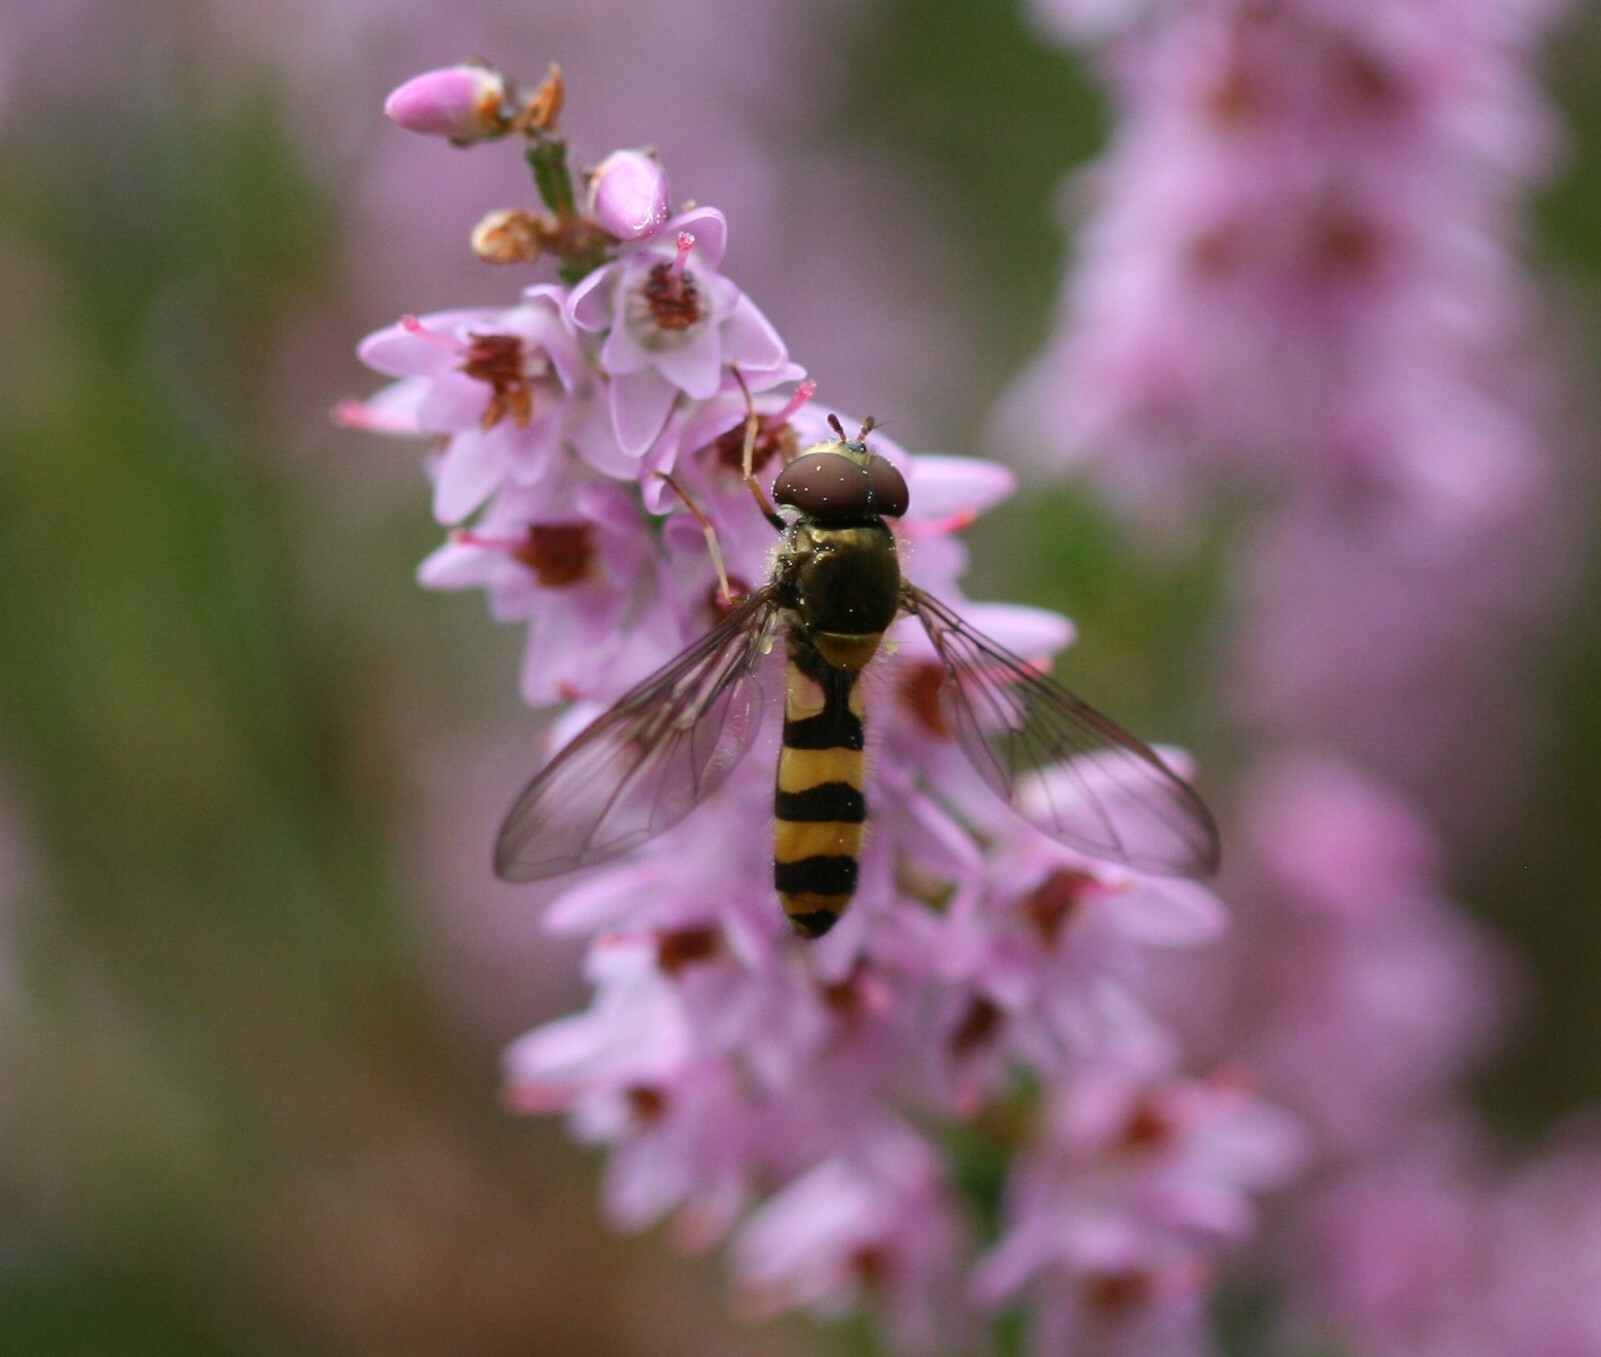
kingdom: Animalia
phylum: Arthropoda
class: Insecta
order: Diptera
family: Syrphidae
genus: Meliscaeva
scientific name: Meliscaeva cinctella
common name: American thintail fly
